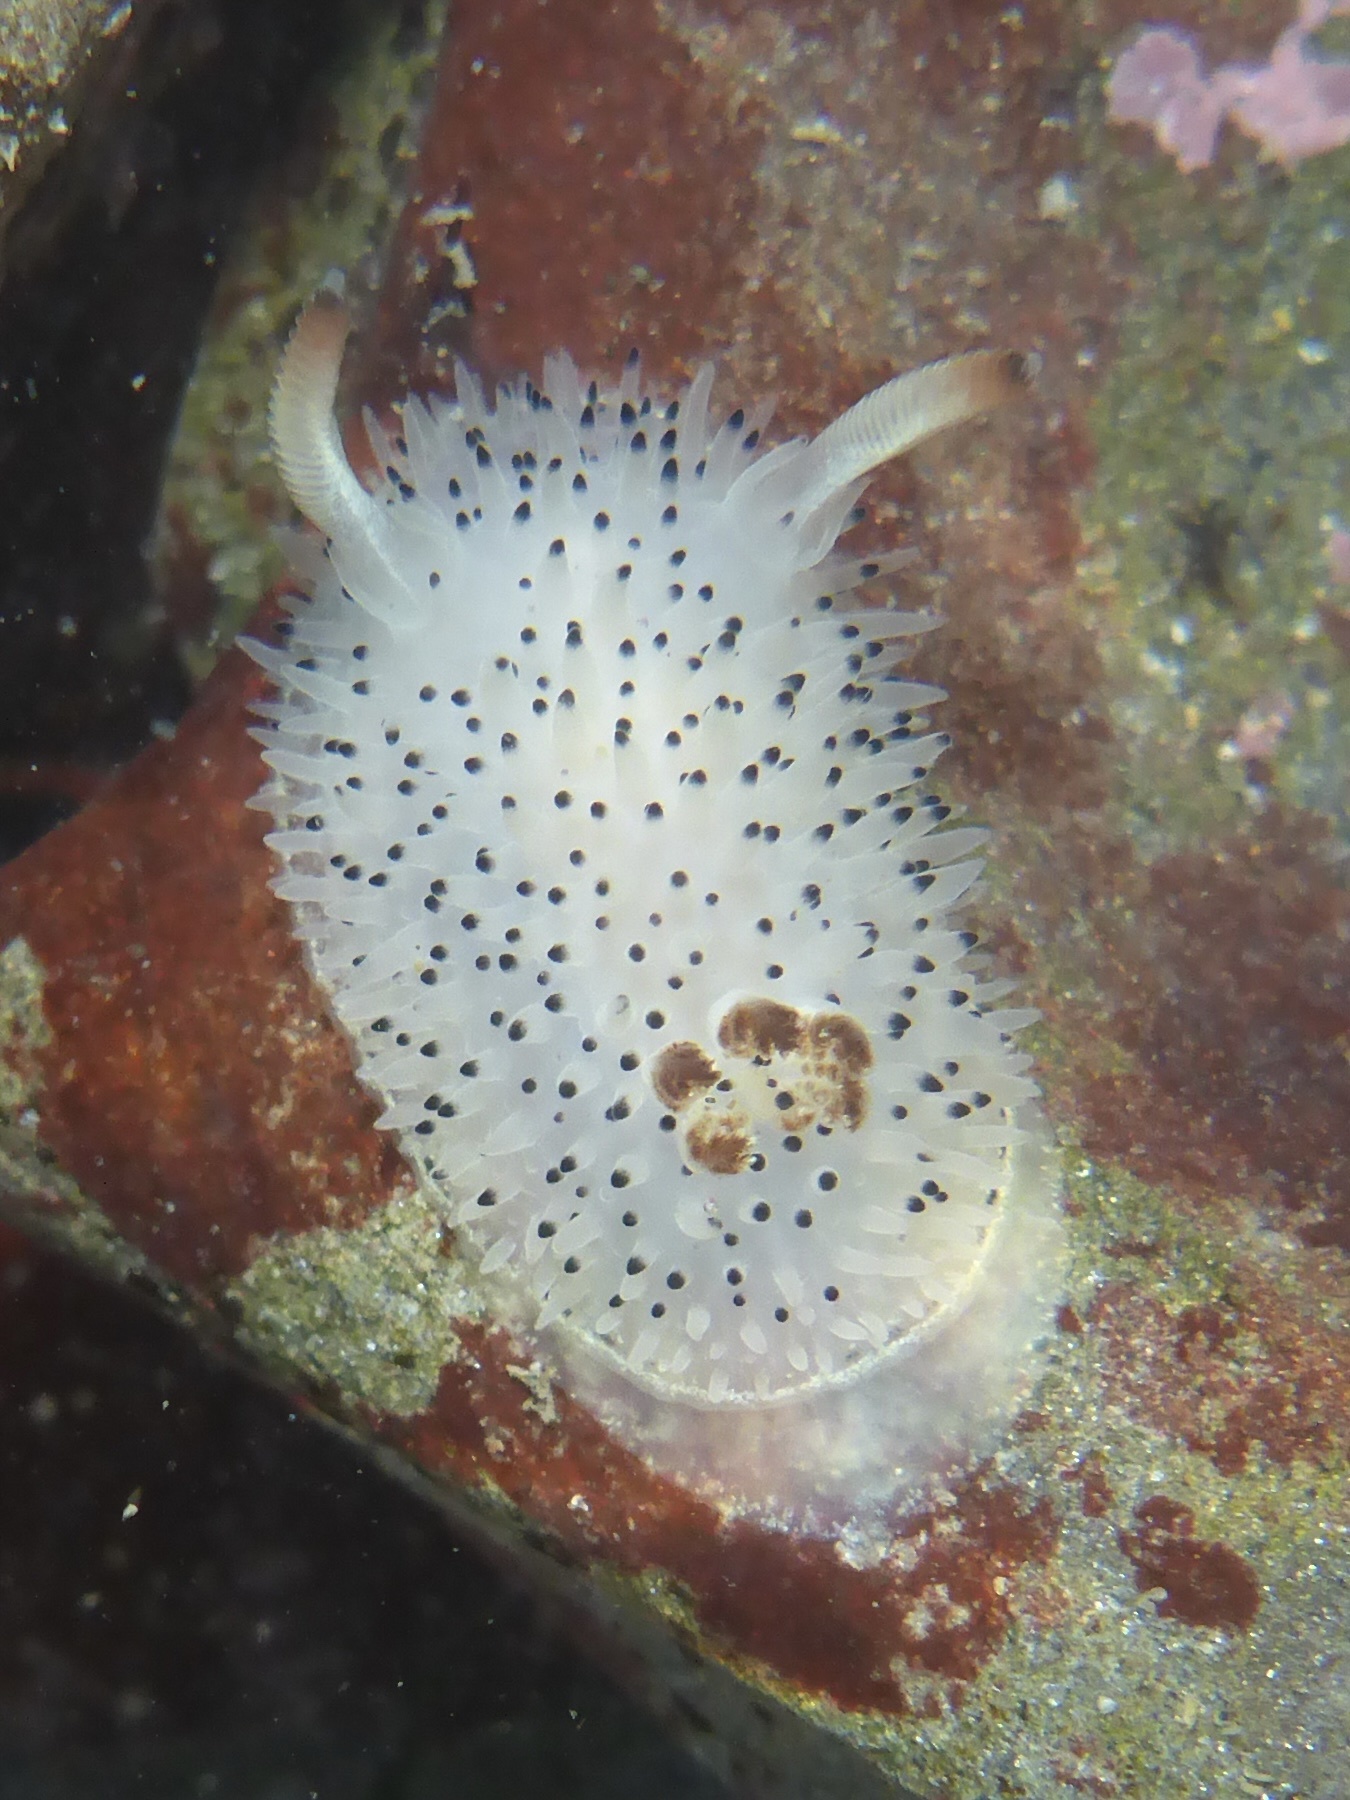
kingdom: Animalia
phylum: Mollusca
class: Gastropoda
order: Nudibranchia
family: Onchidorididae
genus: Acanthodoris
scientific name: Acanthodoris rhodoceras
